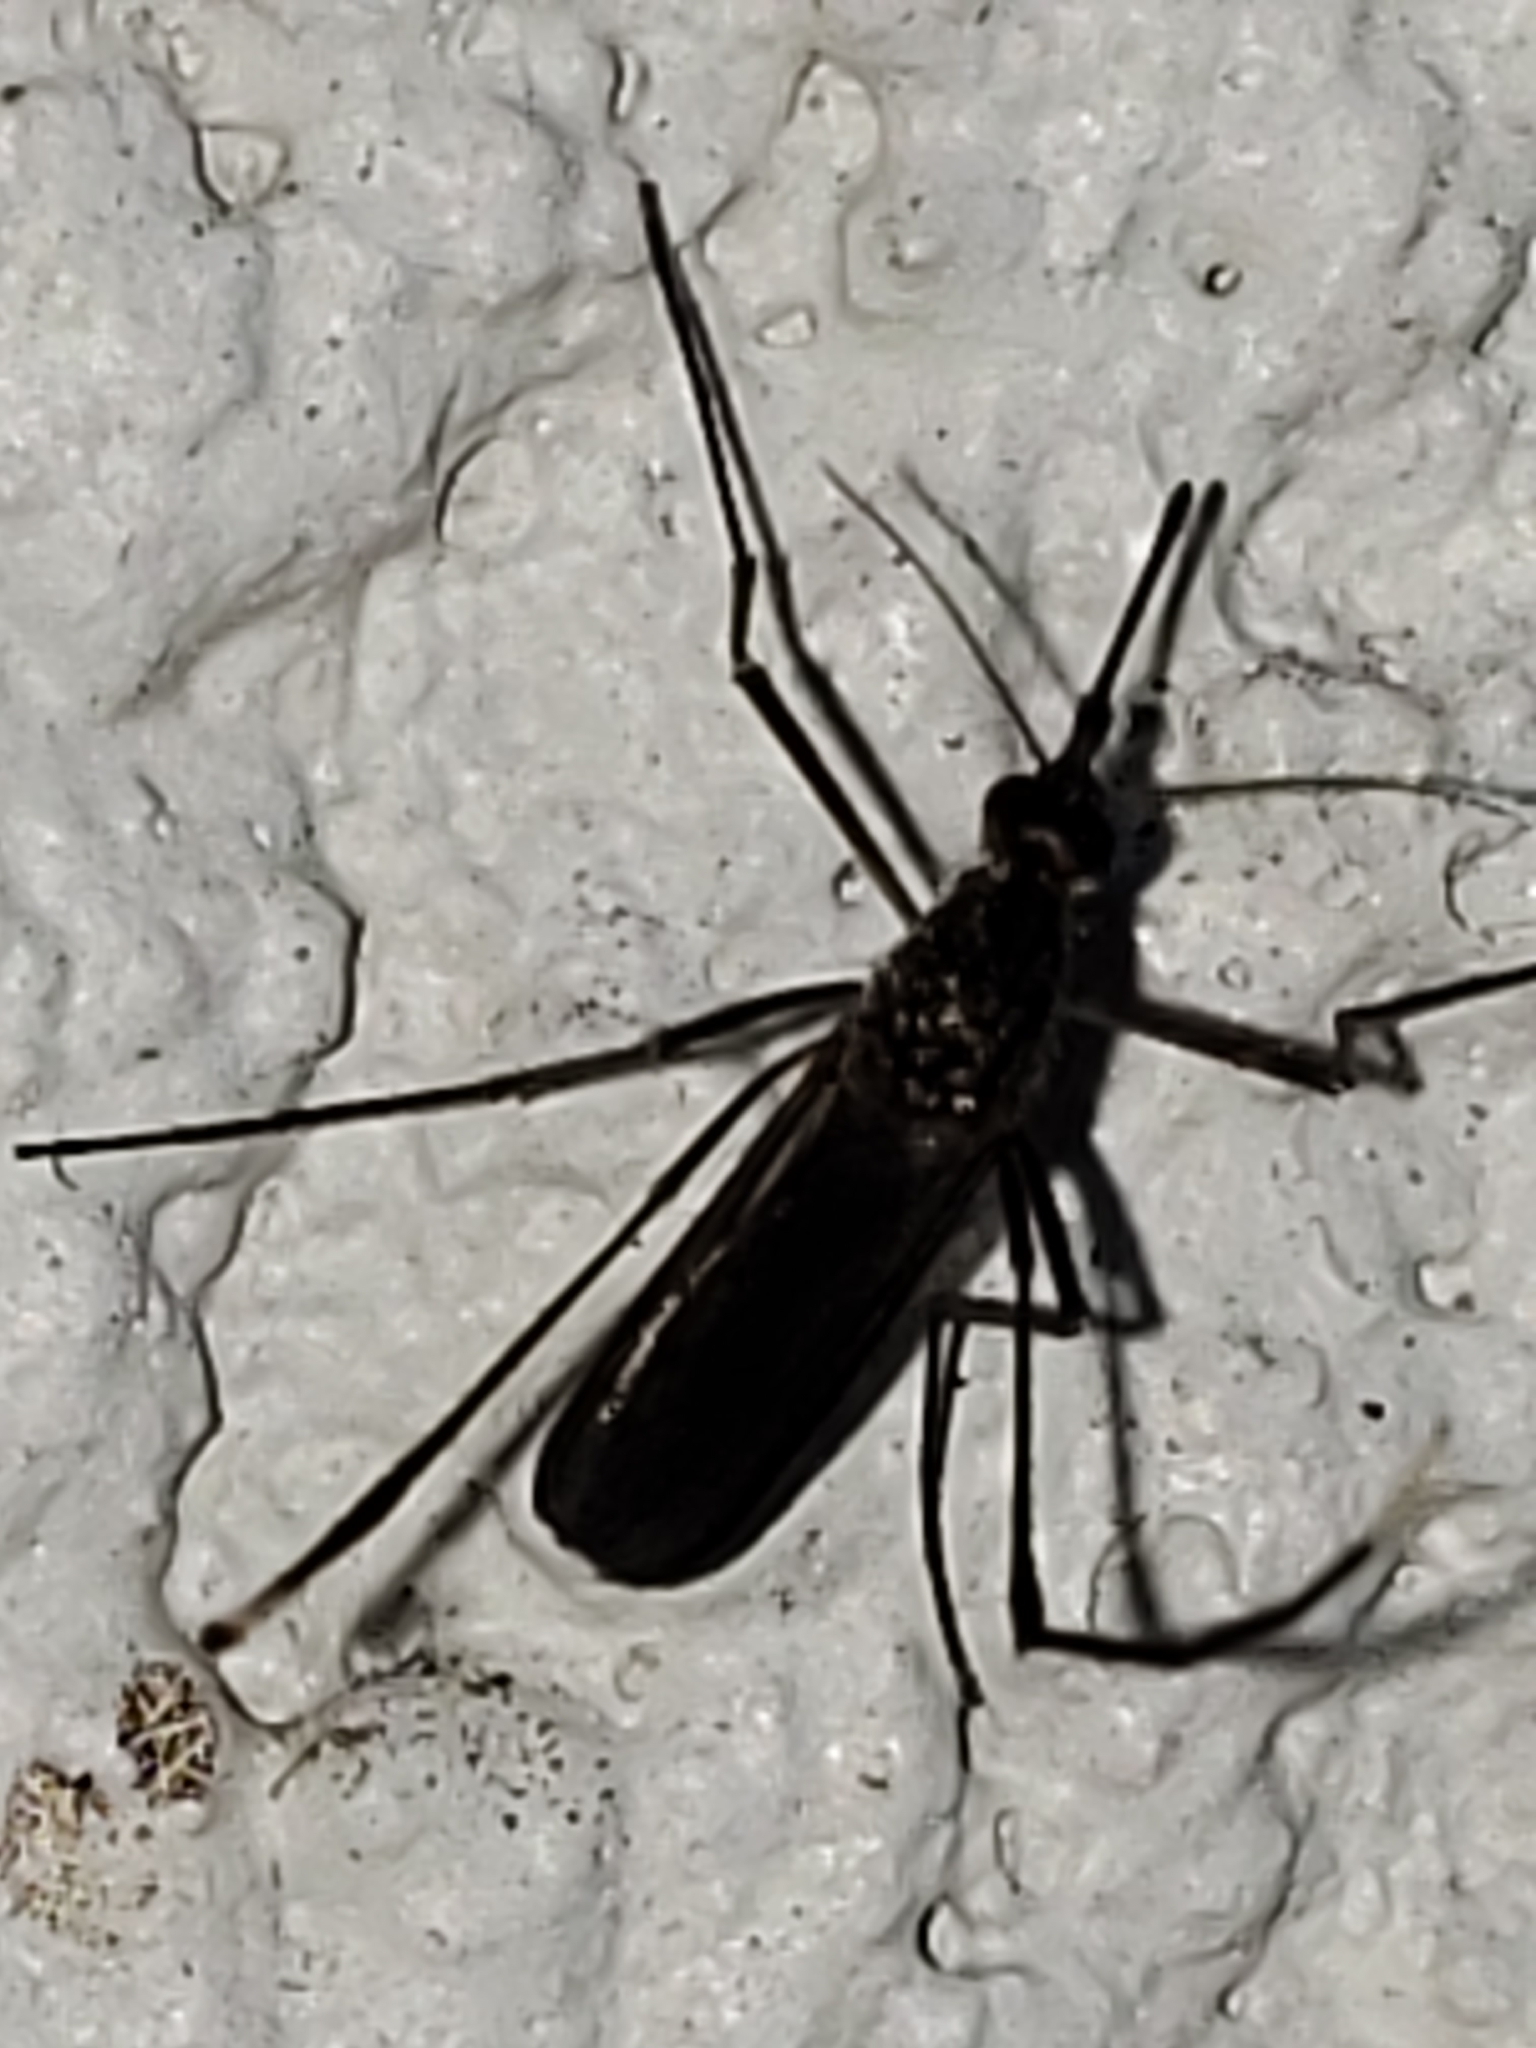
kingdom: Animalia
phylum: Arthropoda
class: Insecta
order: Diptera
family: Culicidae
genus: Psorophora
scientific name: Psorophora ferox
